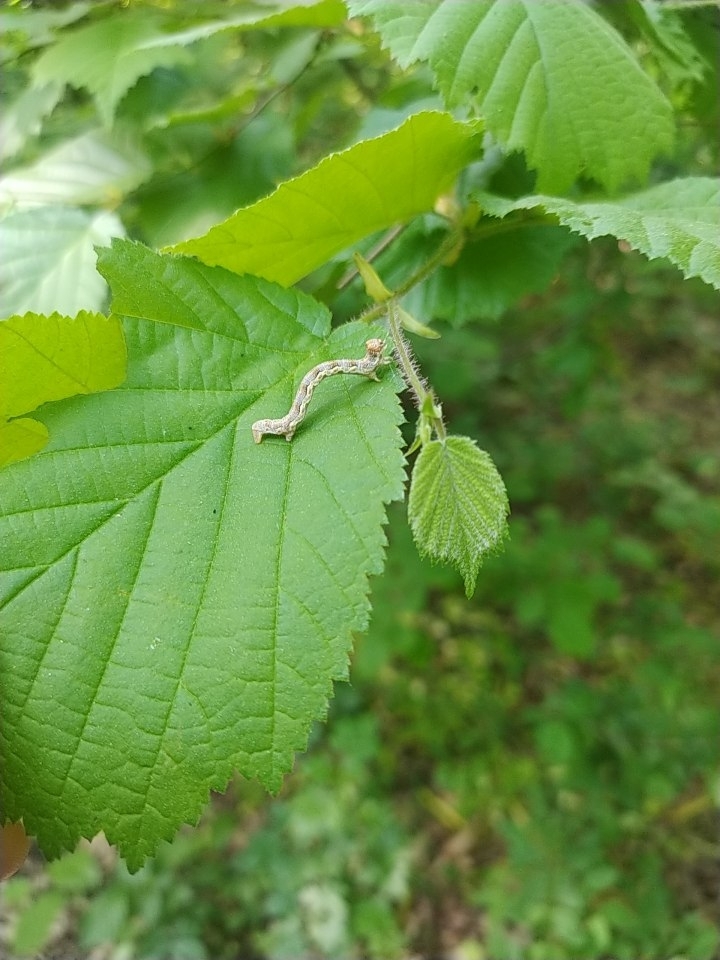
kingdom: Animalia
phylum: Arthropoda
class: Insecta
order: Lepidoptera
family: Geometridae
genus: Erannis
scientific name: Erannis defoliaria
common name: Mottled umber
